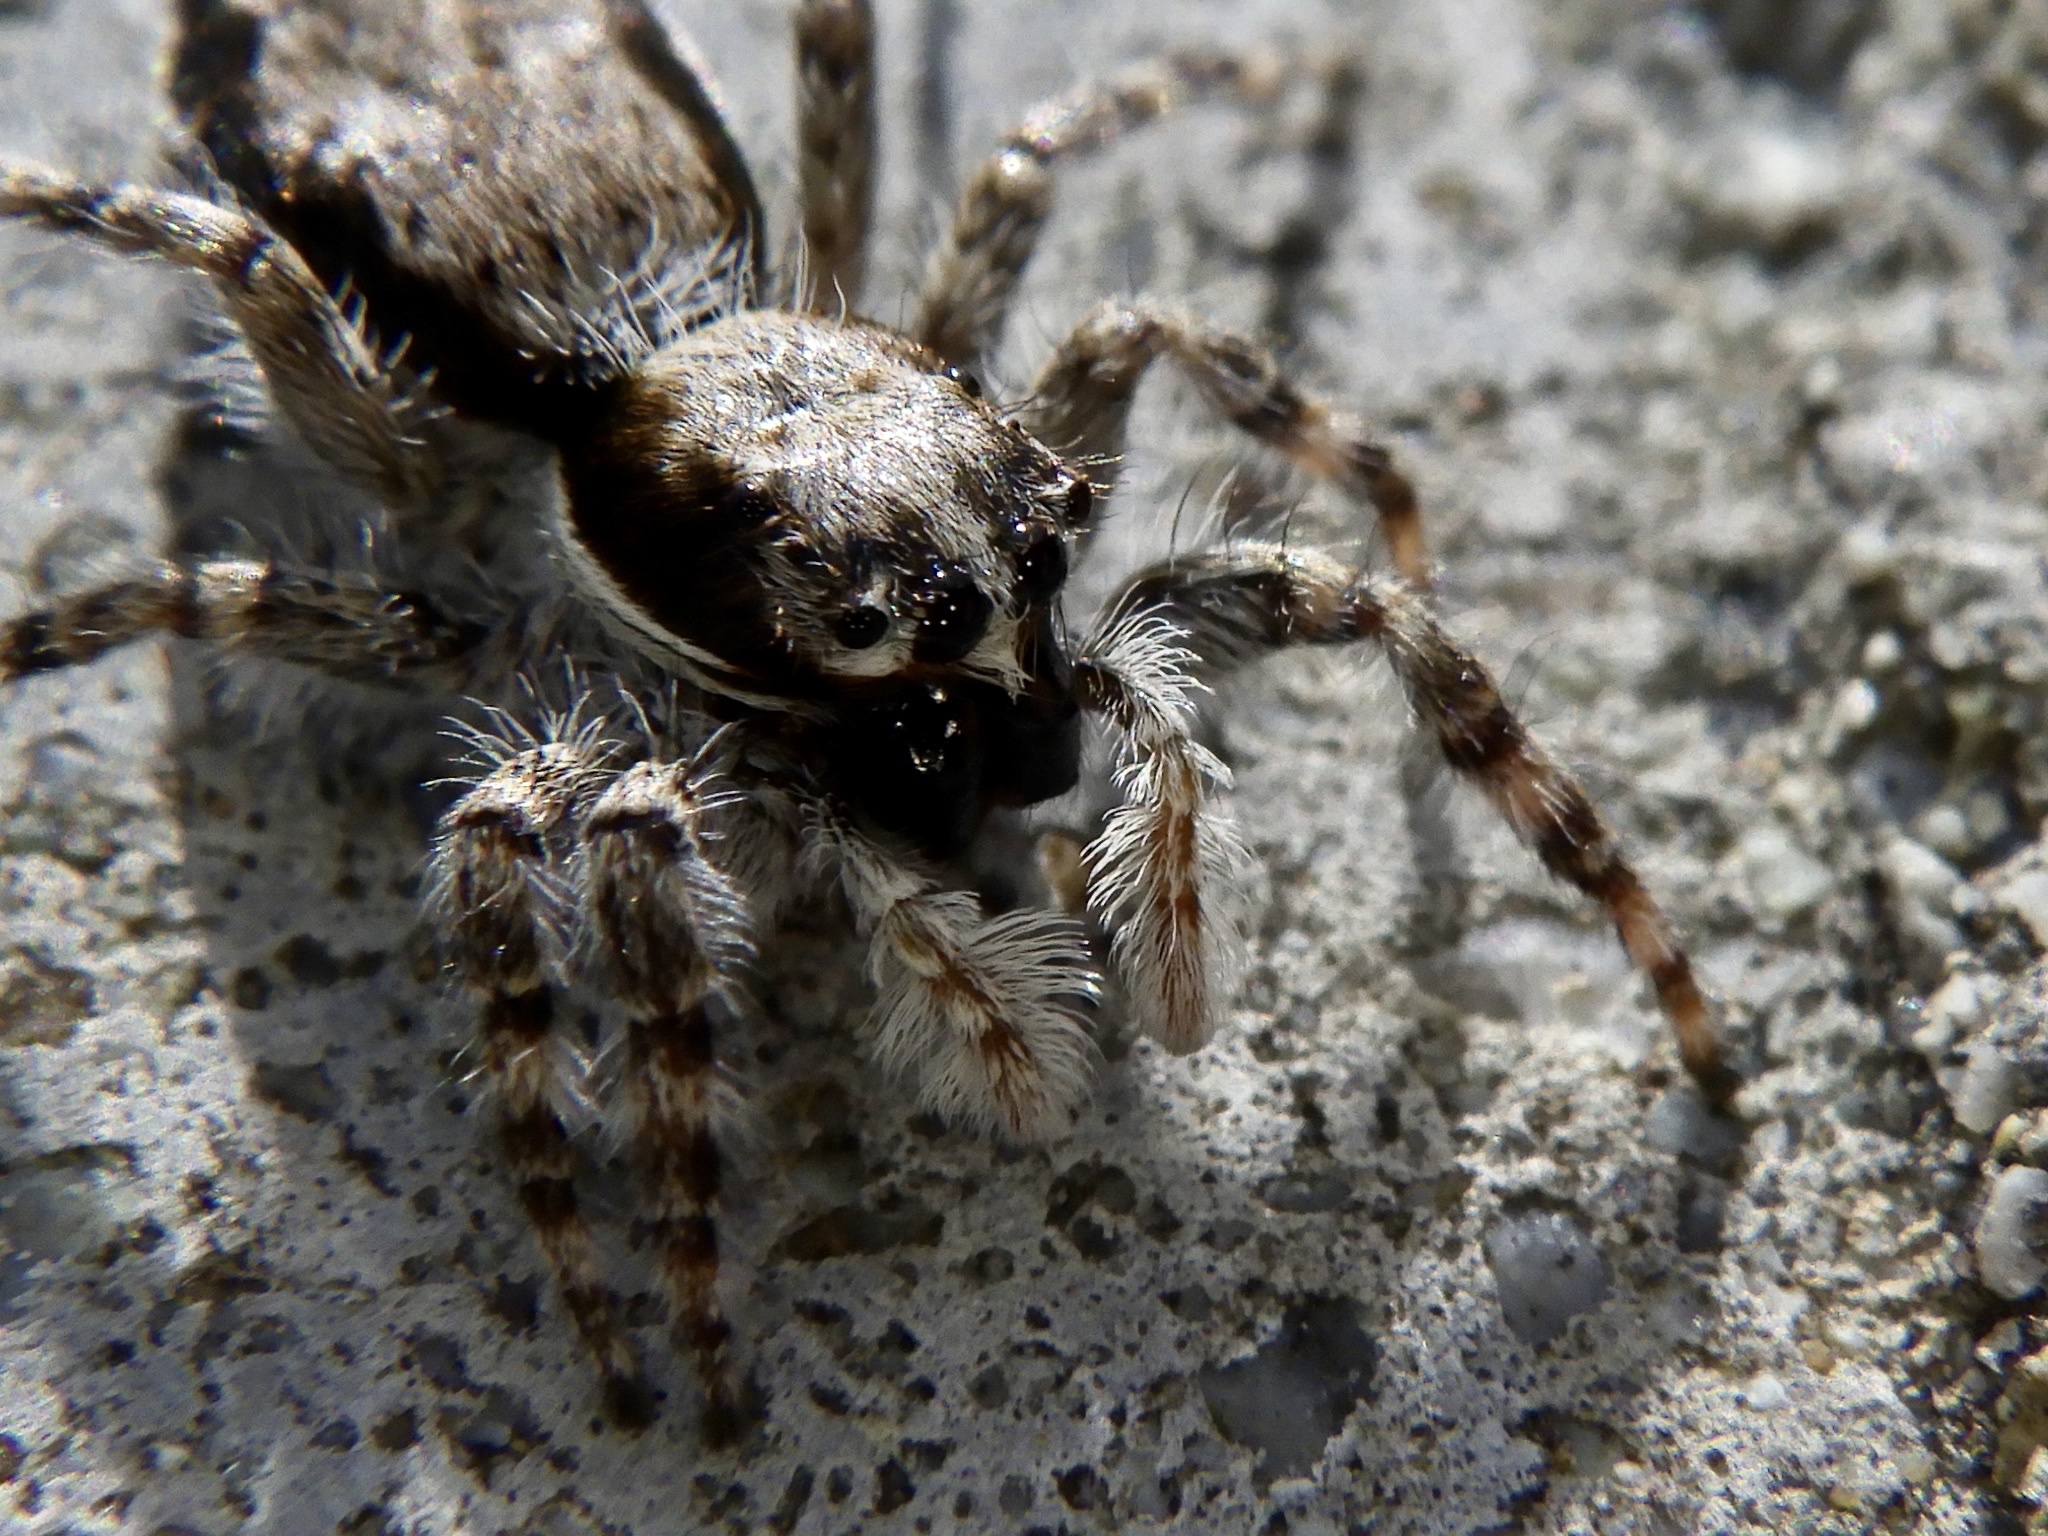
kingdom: Animalia
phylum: Arthropoda
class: Arachnida
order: Araneae
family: Salticidae
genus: Menemerus
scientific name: Menemerus fulvus
